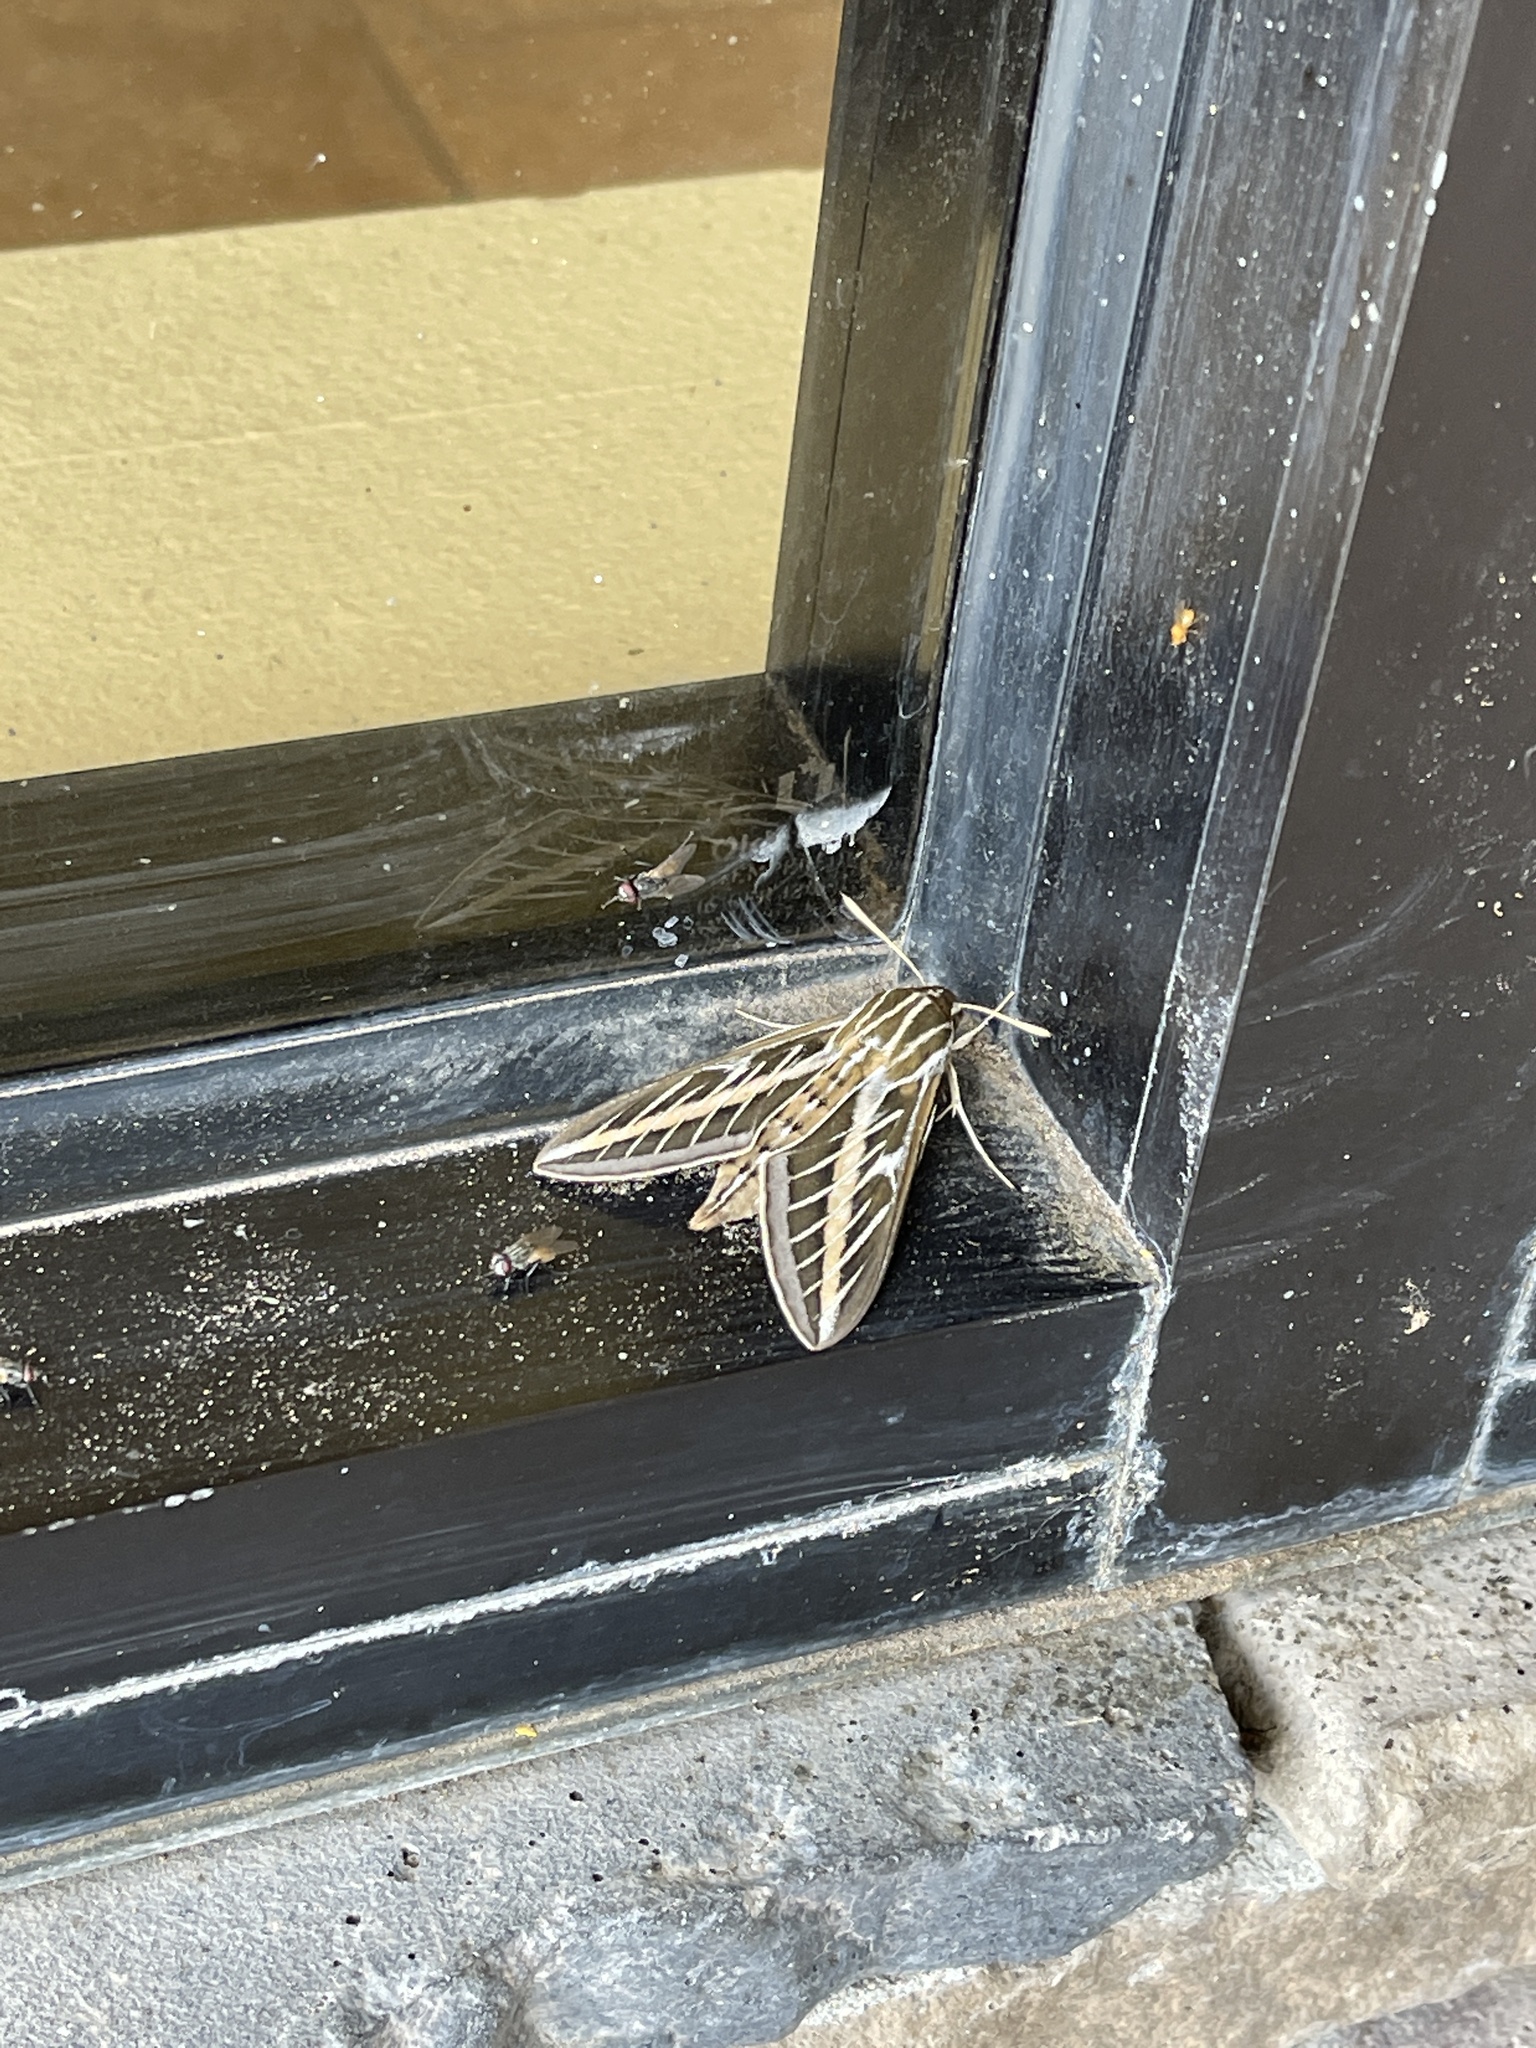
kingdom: Animalia
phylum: Arthropoda
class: Insecta
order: Lepidoptera
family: Sphingidae
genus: Hyles
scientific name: Hyles lineata
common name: White-lined sphinx
